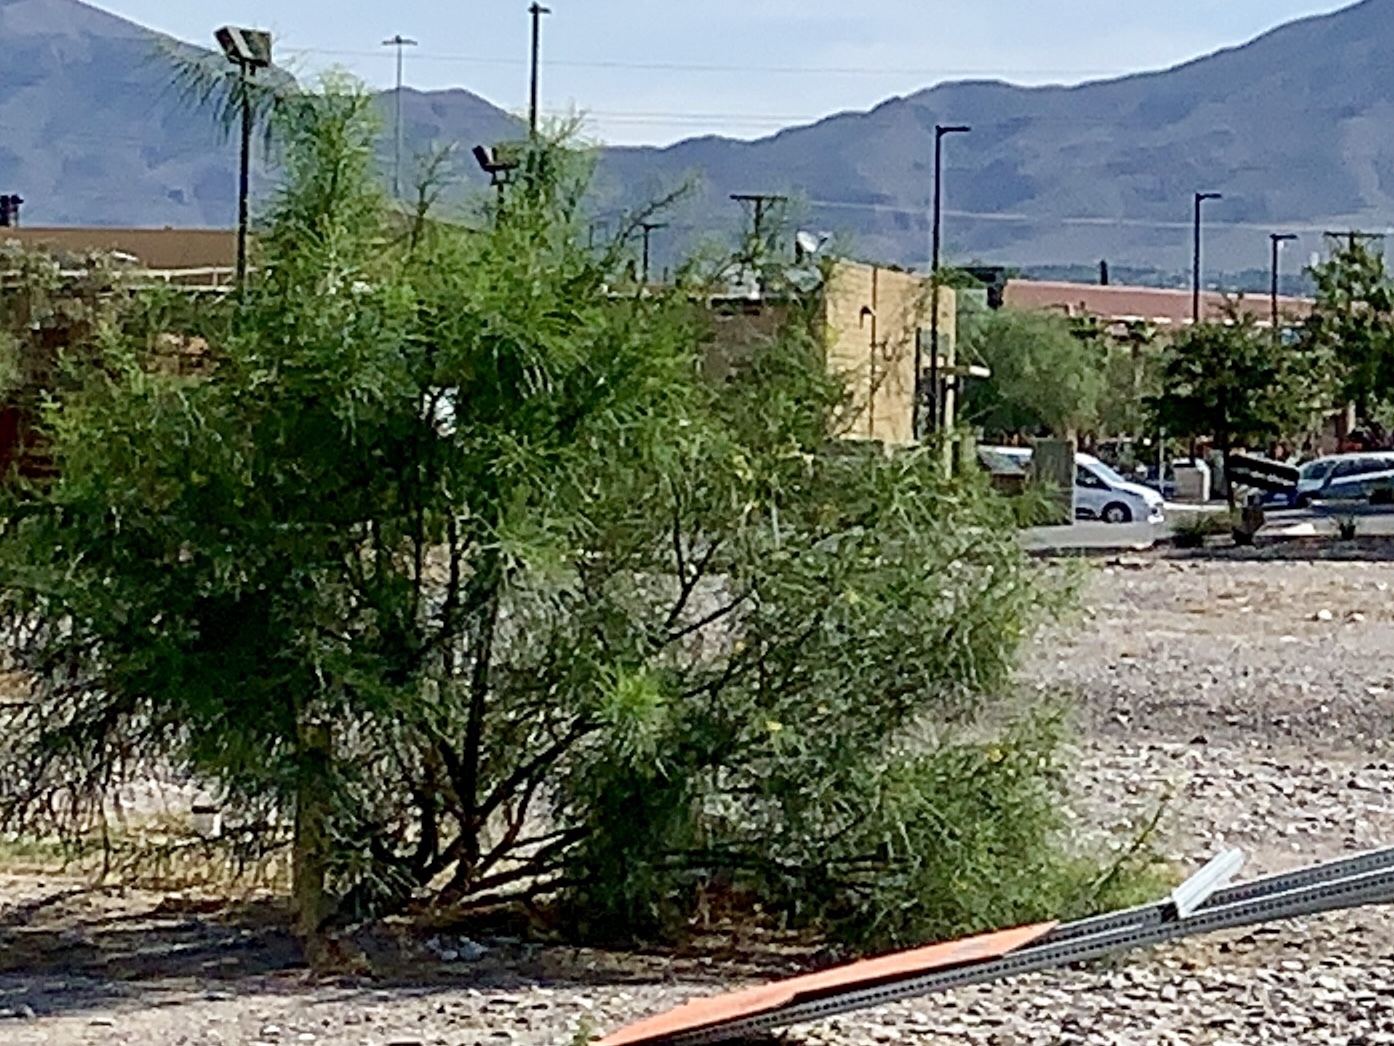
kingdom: Plantae
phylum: Tracheophyta
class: Magnoliopsida
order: Fabales
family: Fabaceae
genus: Parkinsonia
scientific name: Parkinsonia aculeata
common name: Jerusalem thorn
